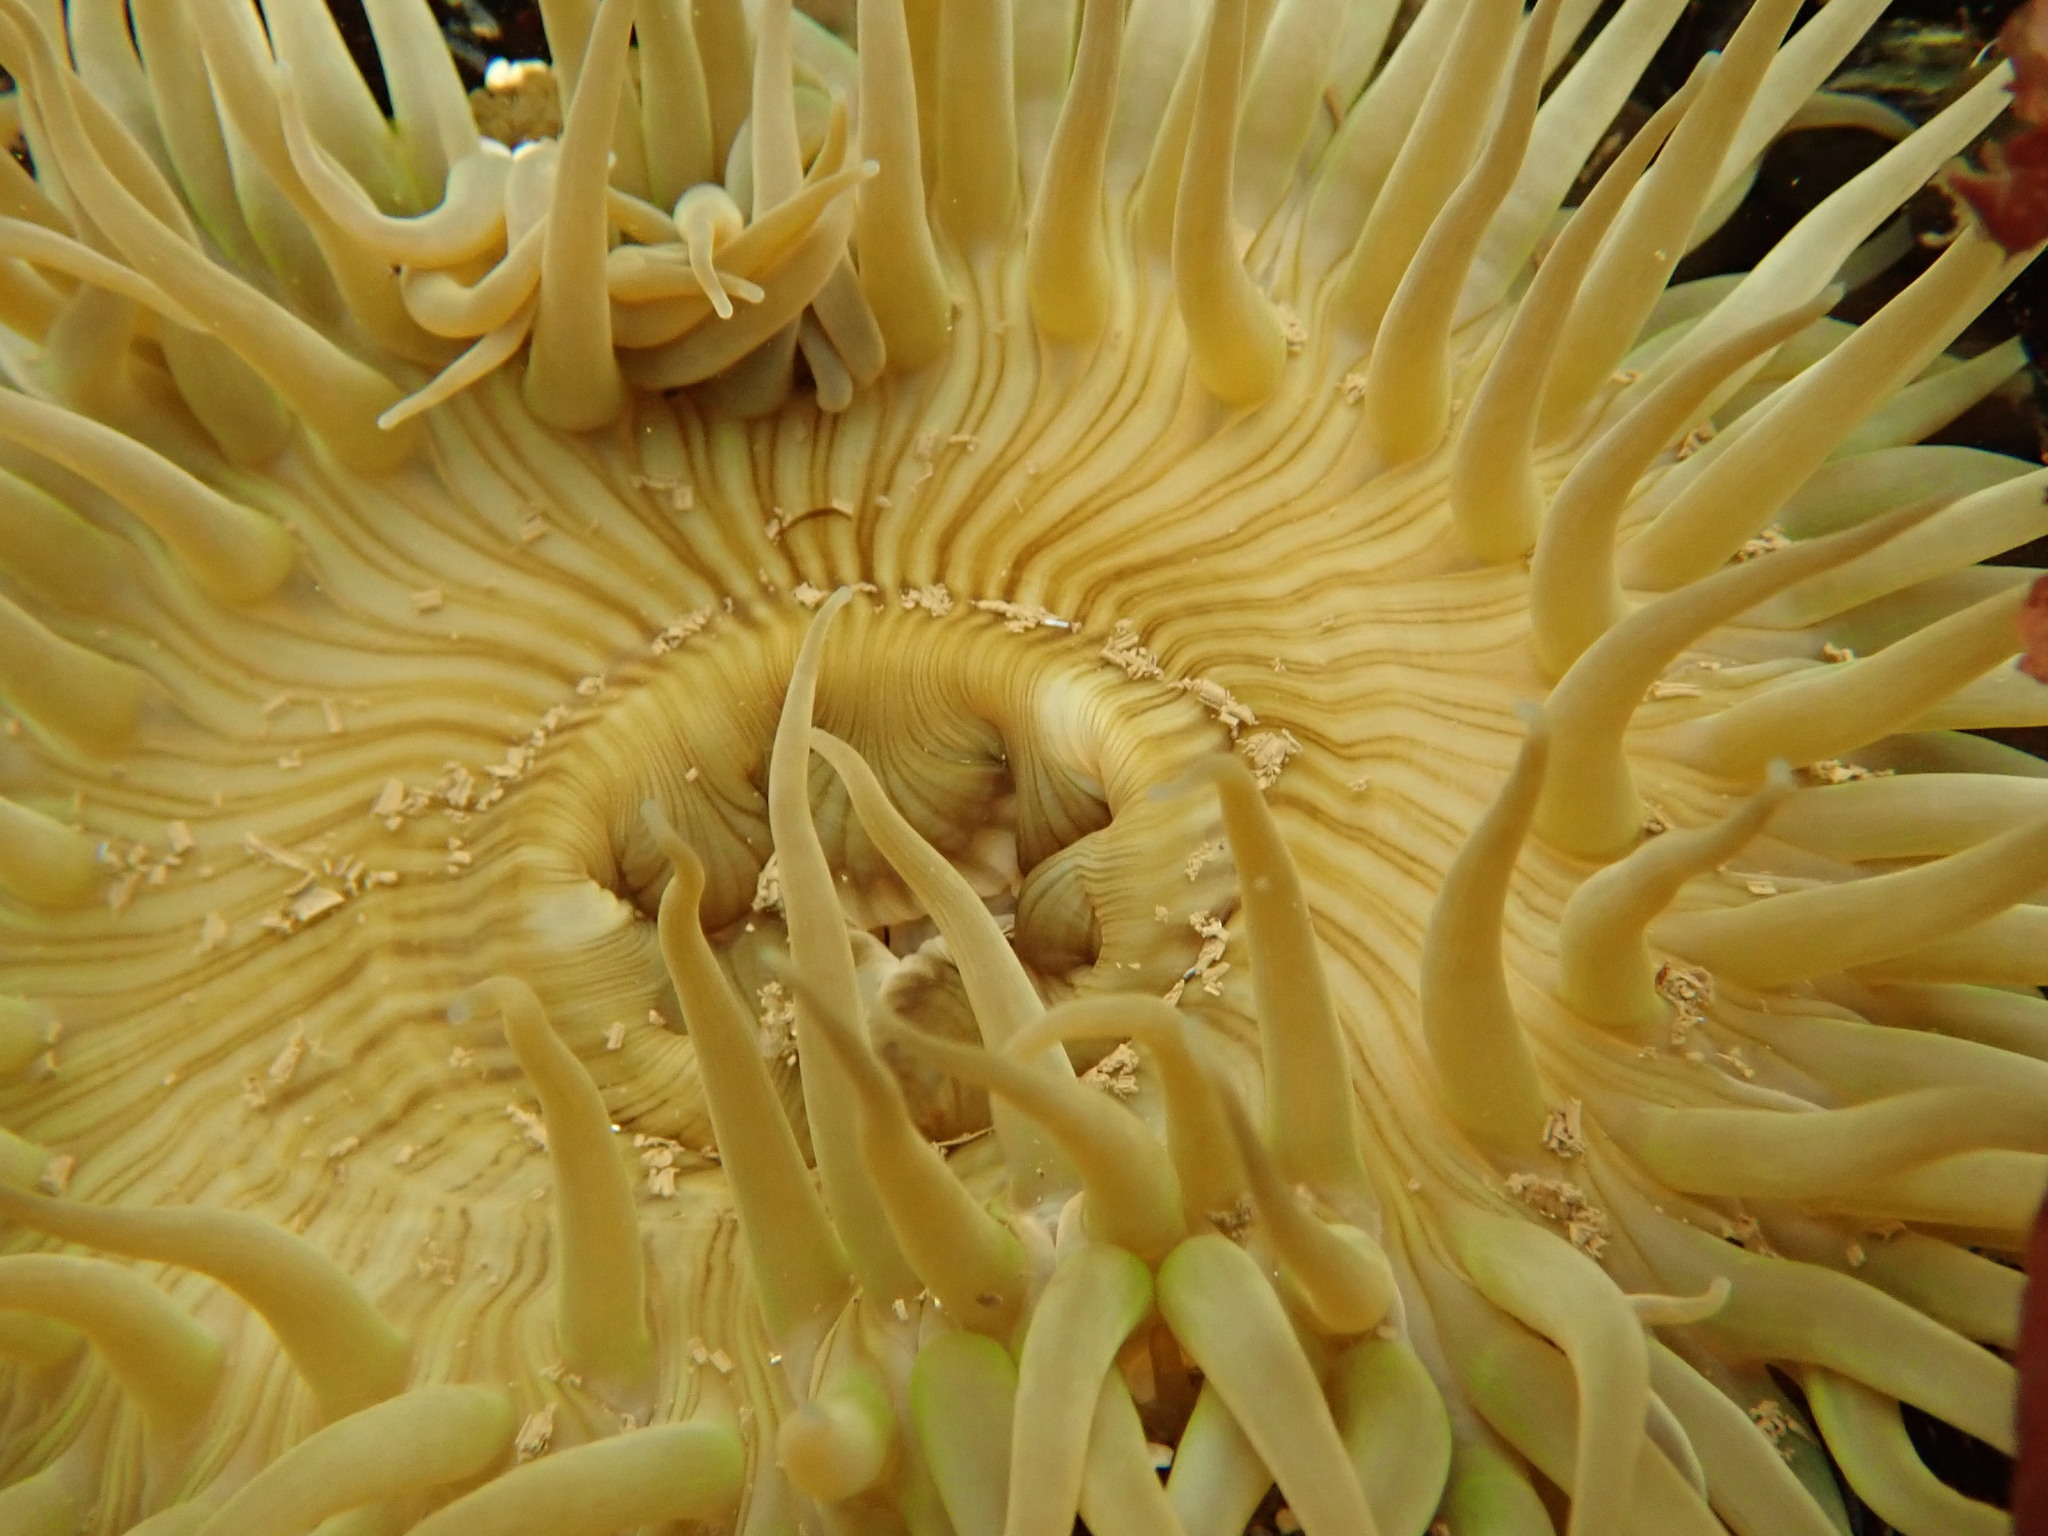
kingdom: Animalia
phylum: Cnidaria
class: Anthozoa
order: Actiniaria
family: Actiniidae
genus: Anthopleura
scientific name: Anthopleura sola
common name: Sun anemone
